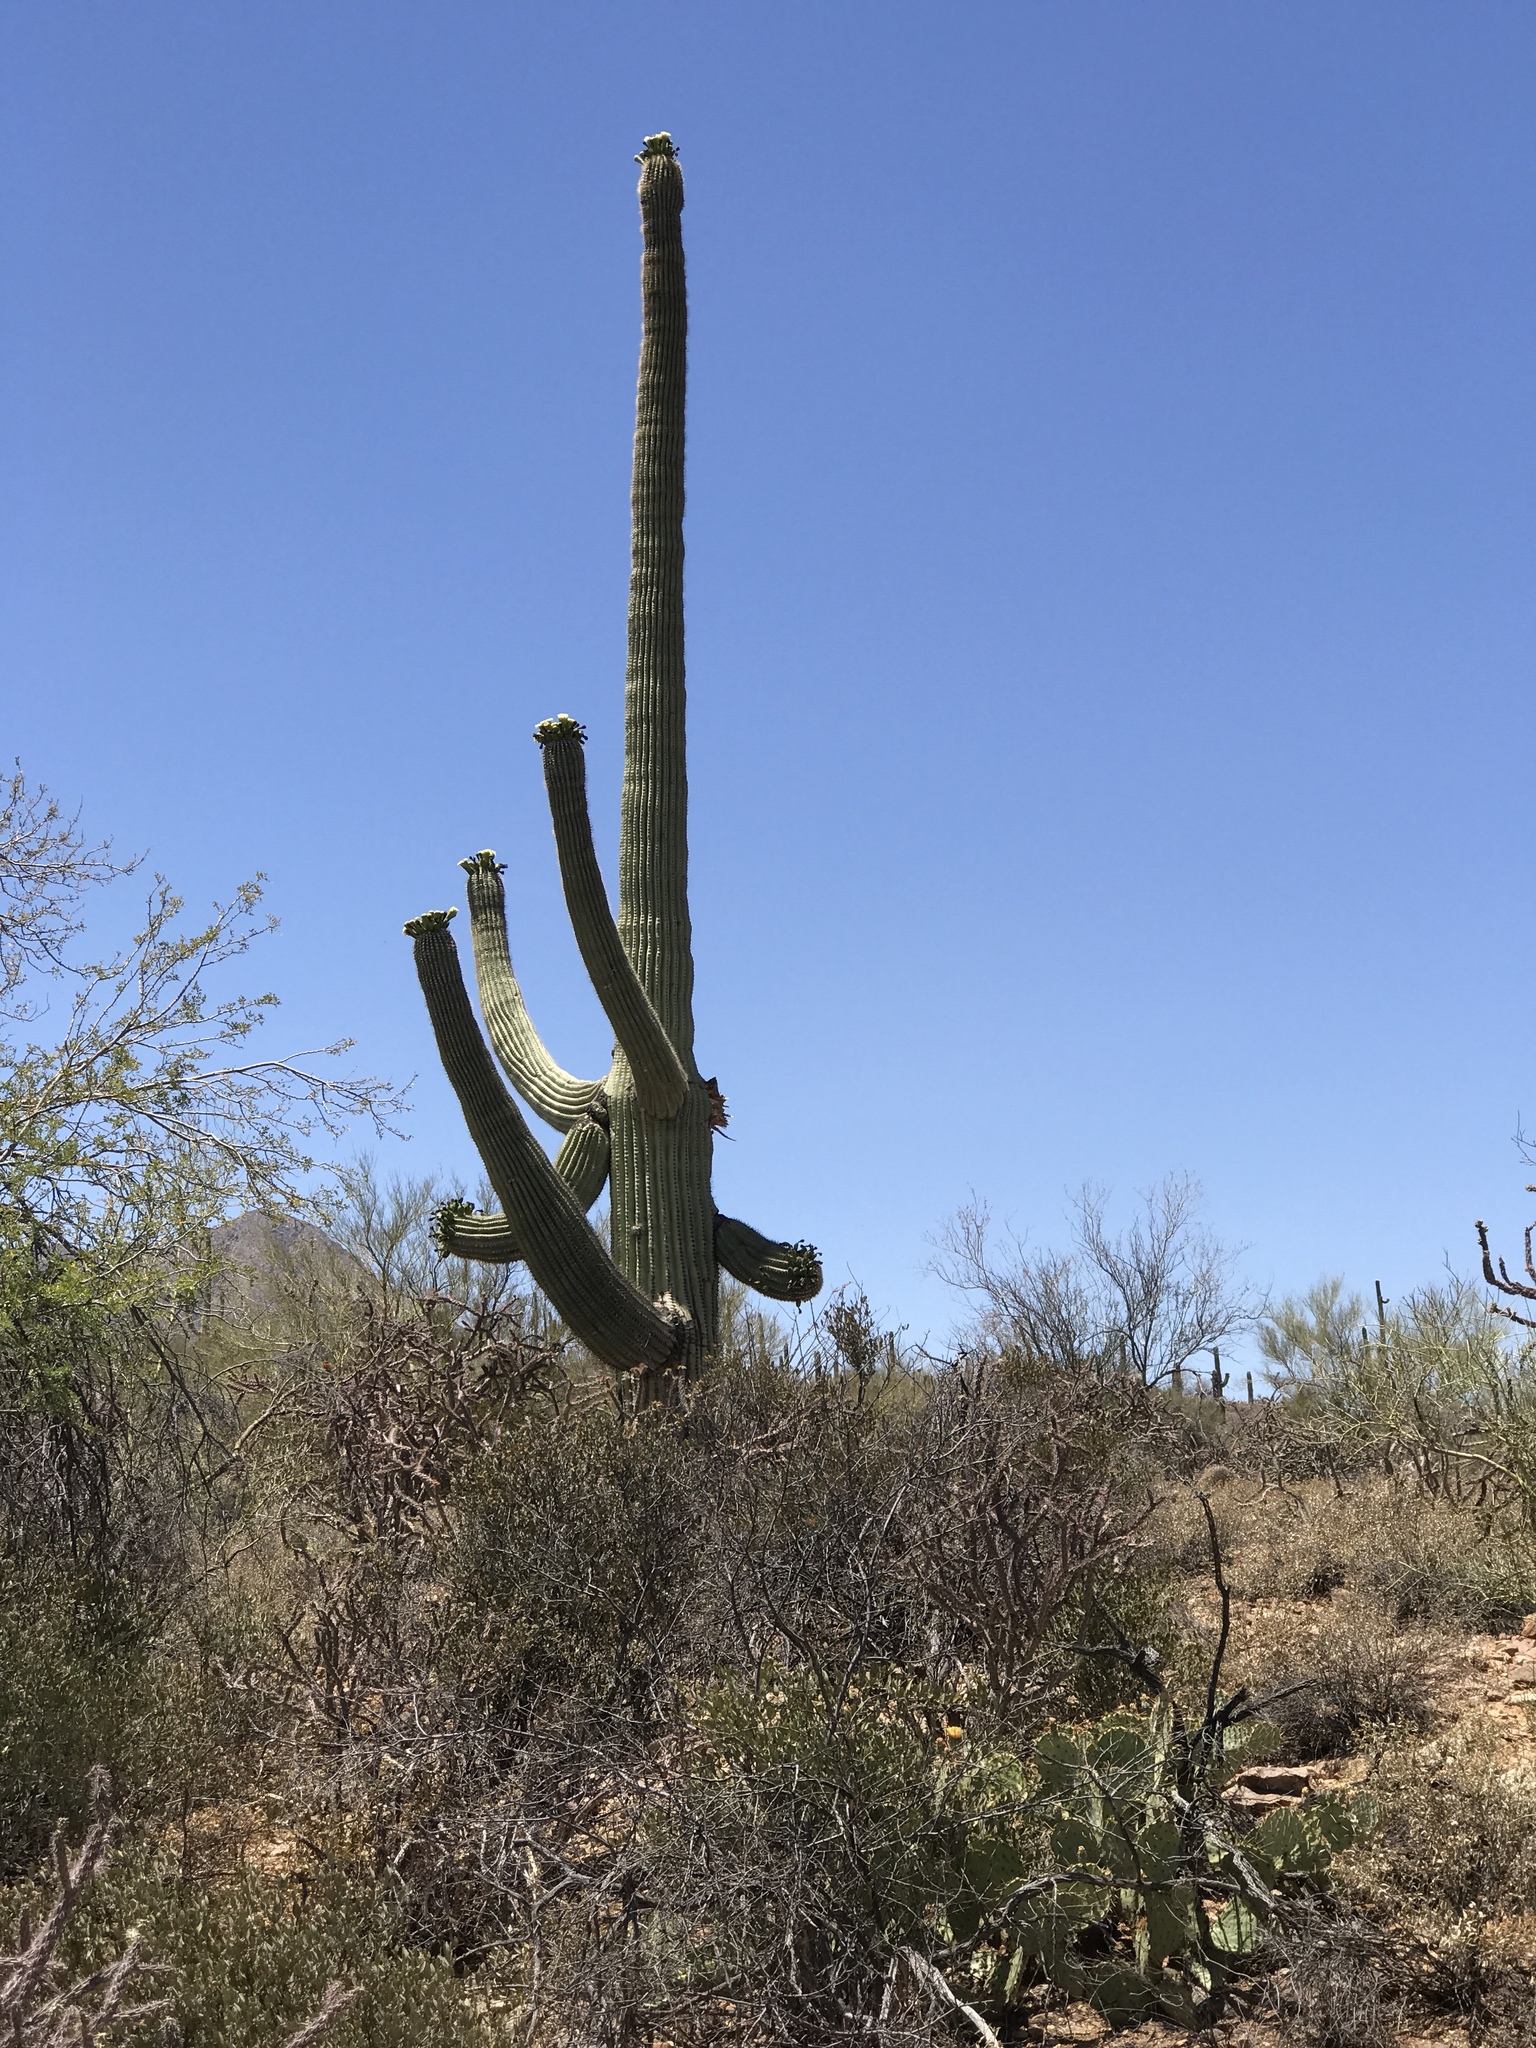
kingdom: Plantae
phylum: Tracheophyta
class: Magnoliopsida
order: Caryophyllales
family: Cactaceae
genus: Carnegiea
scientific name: Carnegiea gigantea
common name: Saguaro
